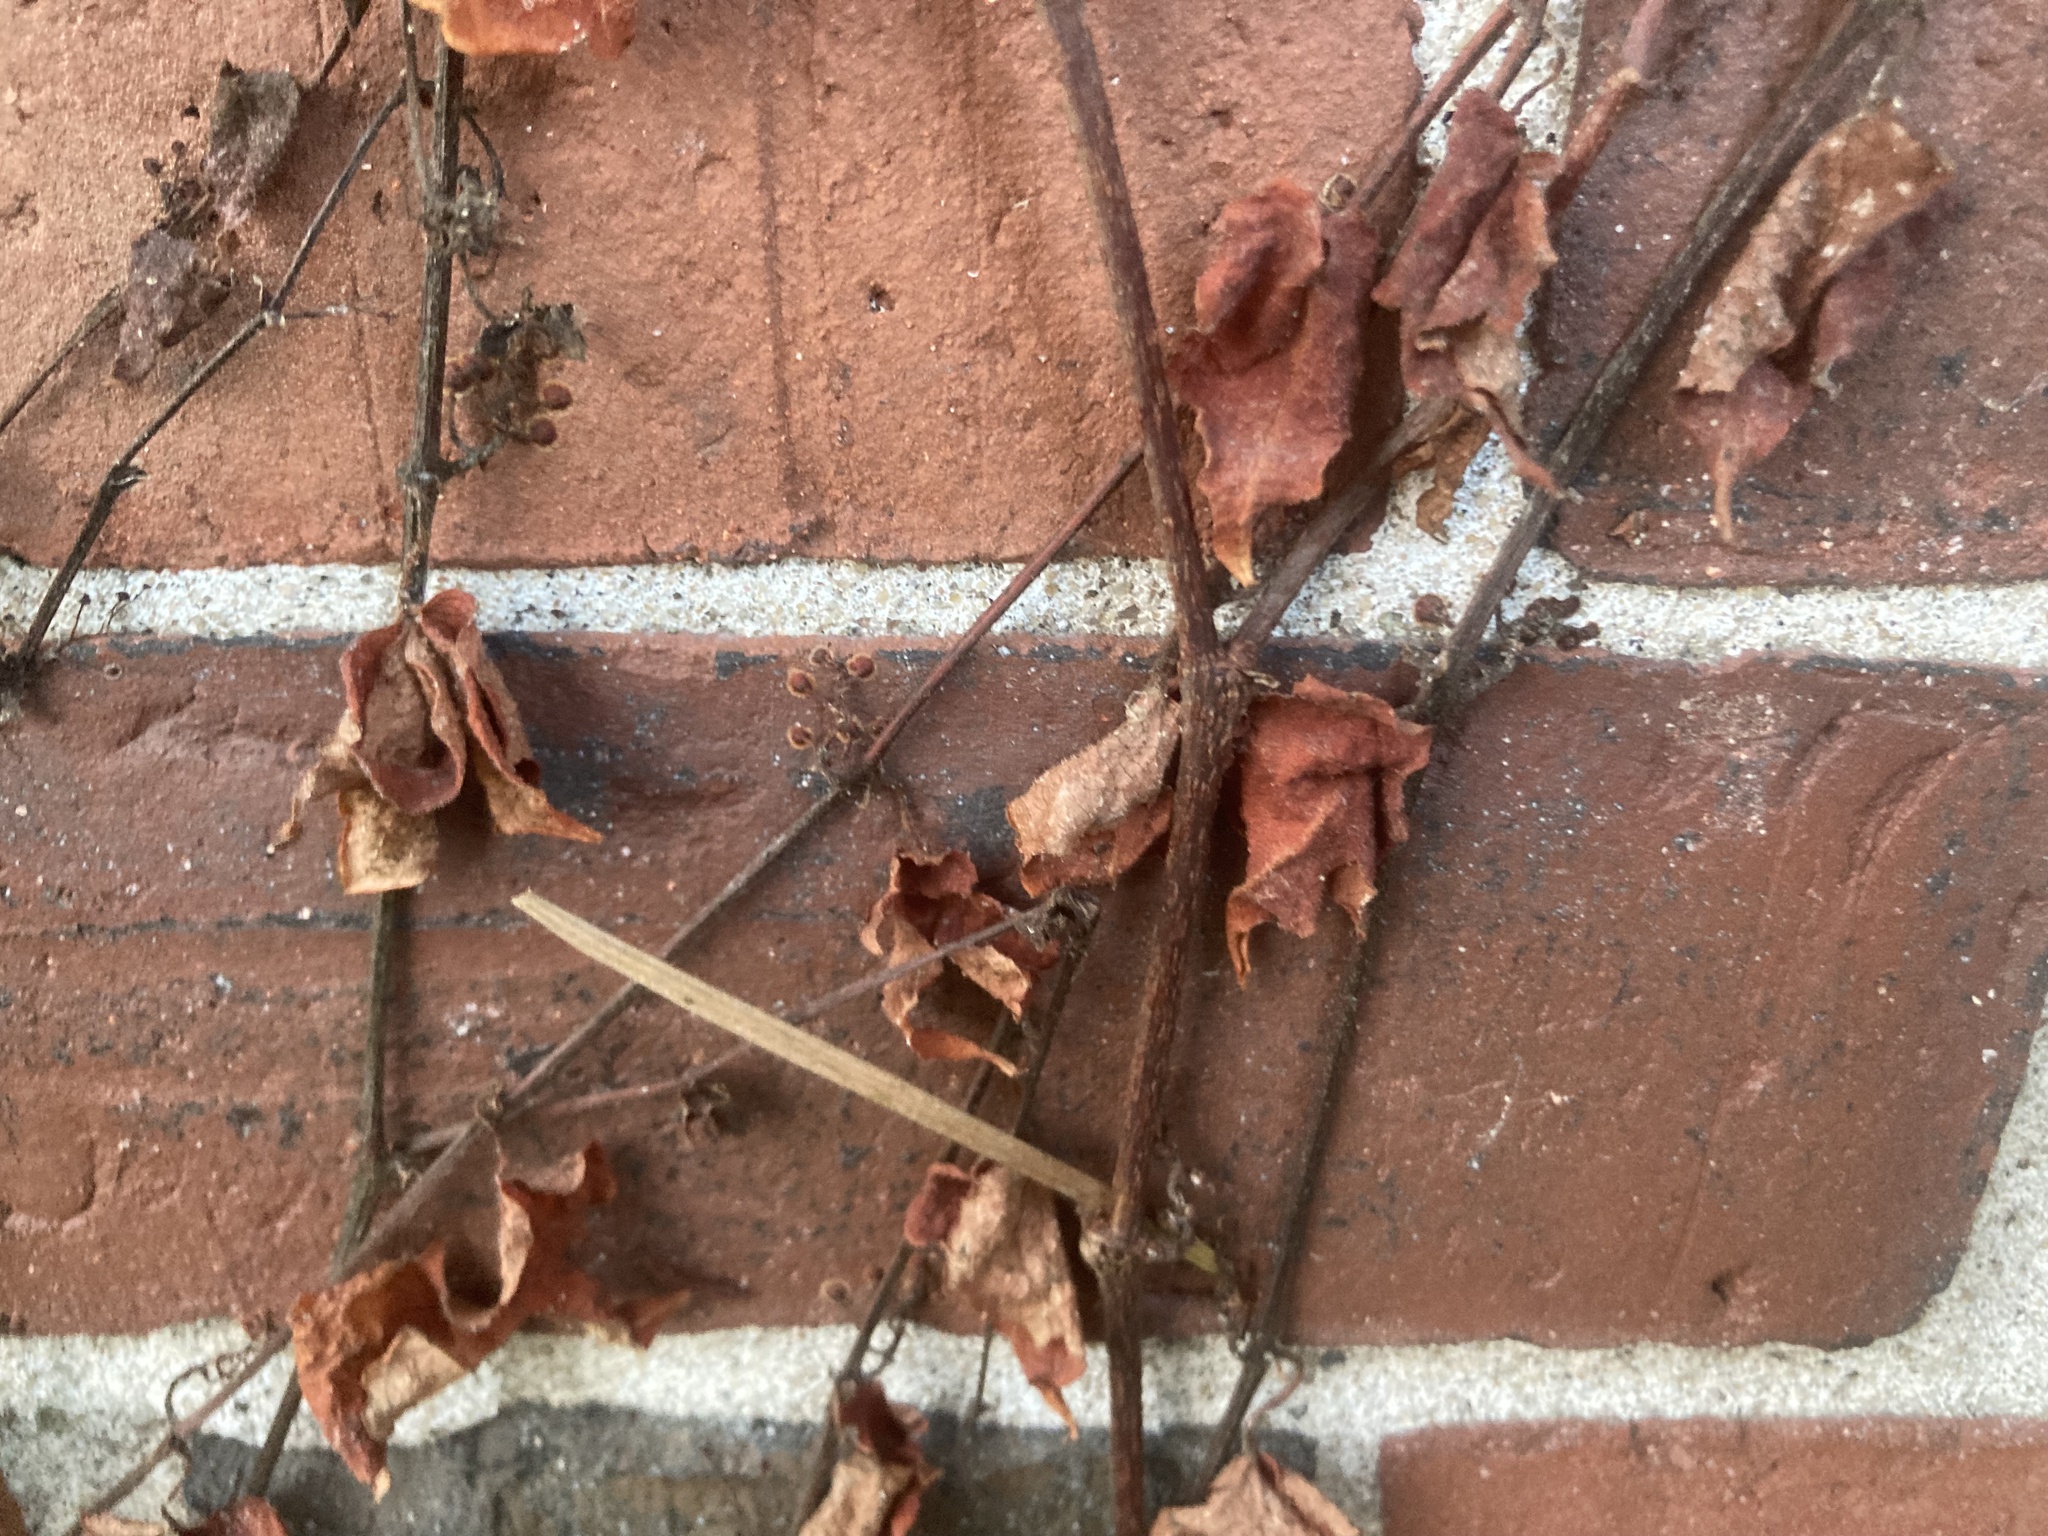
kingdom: Plantae
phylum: Tracheophyta
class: Magnoliopsida
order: Vitales
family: Vitaceae
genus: Parthenocissus
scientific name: Parthenocissus quinquefolia
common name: Virginia-creeper
